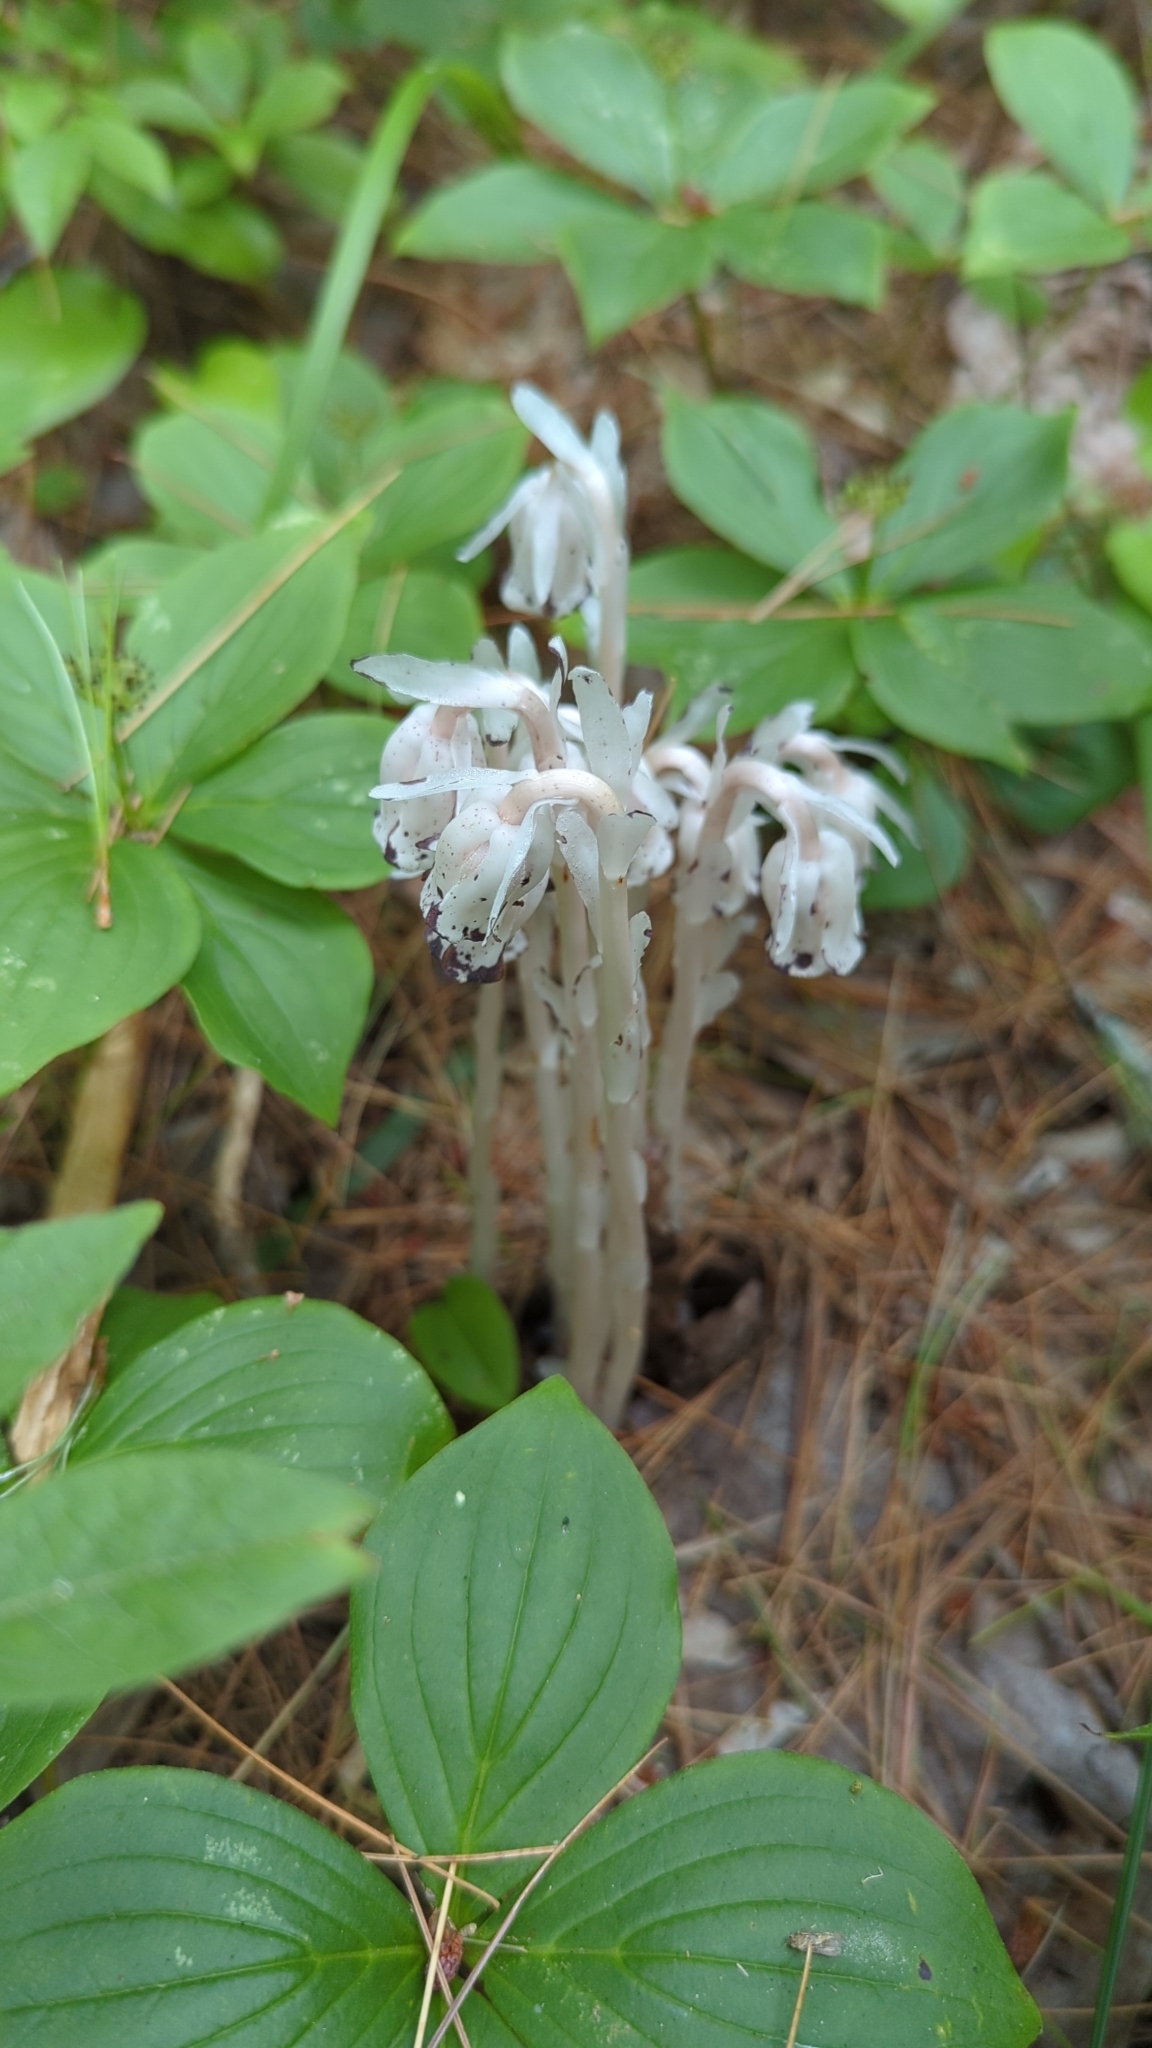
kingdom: Plantae
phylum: Tracheophyta
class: Magnoliopsida
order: Ericales
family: Ericaceae
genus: Monotropa
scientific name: Monotropa uniflora
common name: Convulsion root
